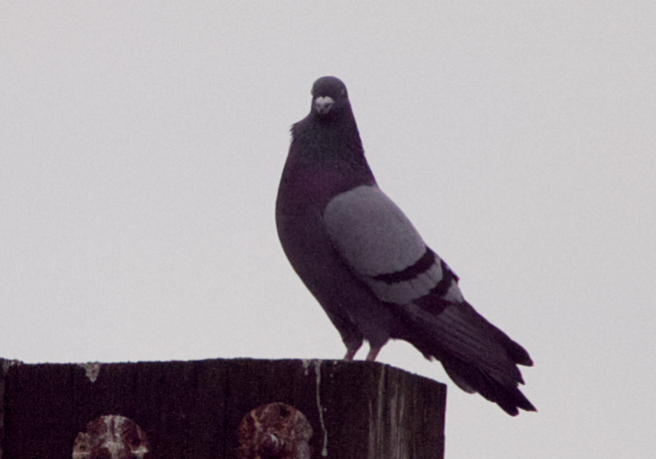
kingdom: Animalia
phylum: Chordata
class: Aves
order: Columbiformes
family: Columbidae
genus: Columba
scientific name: Columba livia
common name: Rock pigeon
